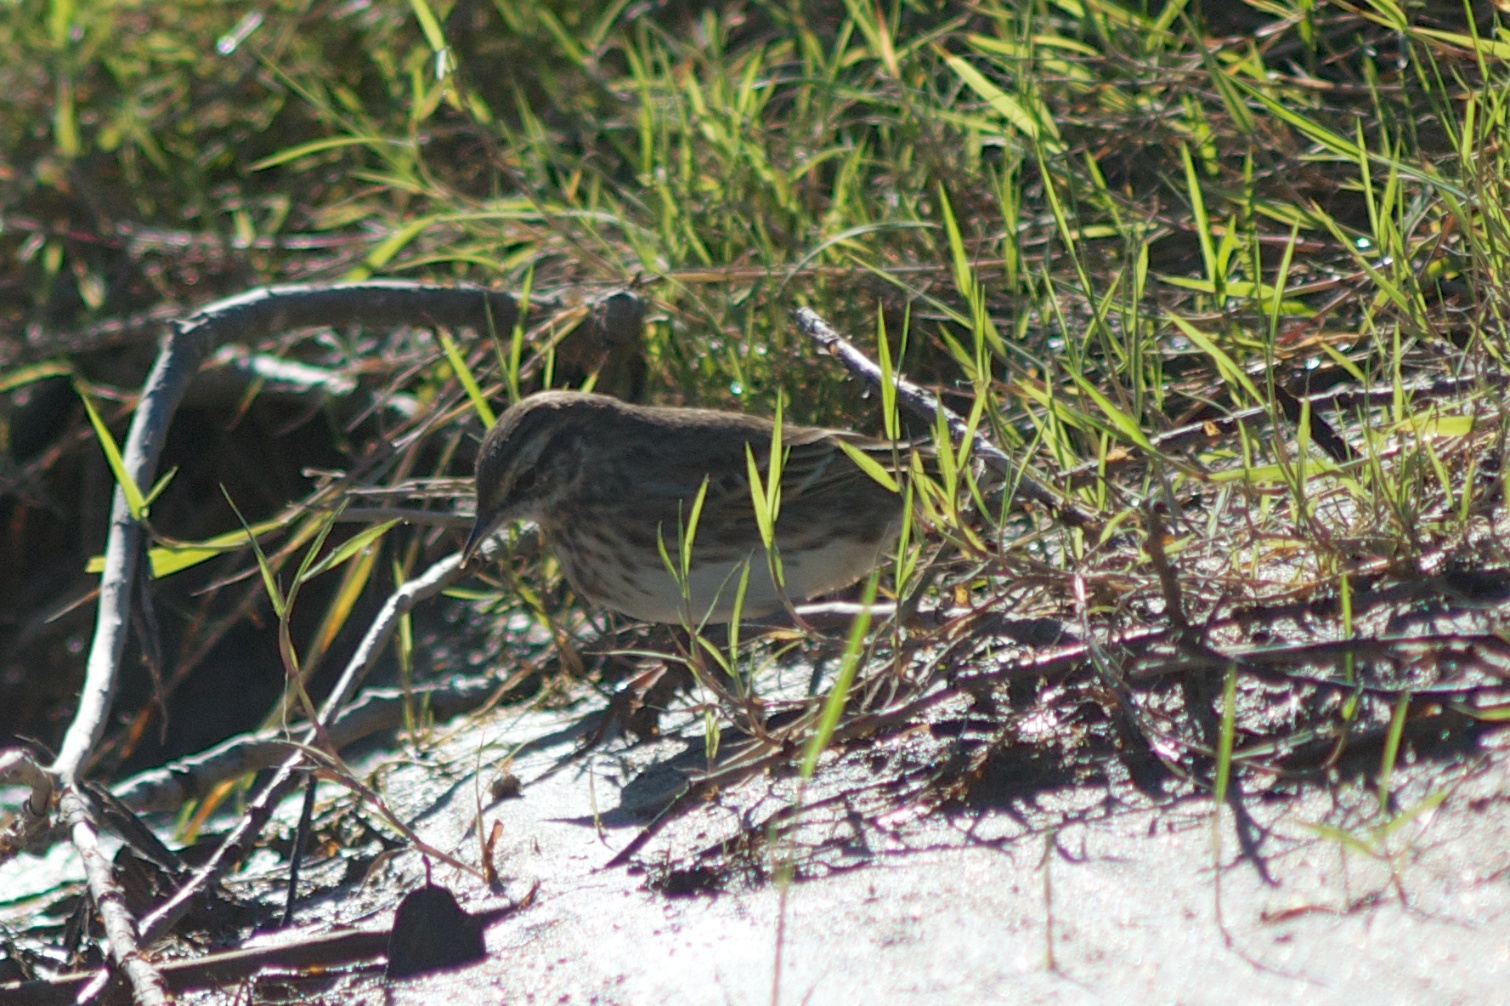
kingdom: Animalia
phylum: Chordata
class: Aves
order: Passeriformes
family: Motacillidae
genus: Anthus
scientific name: Anthus novaeseelandiae
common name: New zealand pipit
